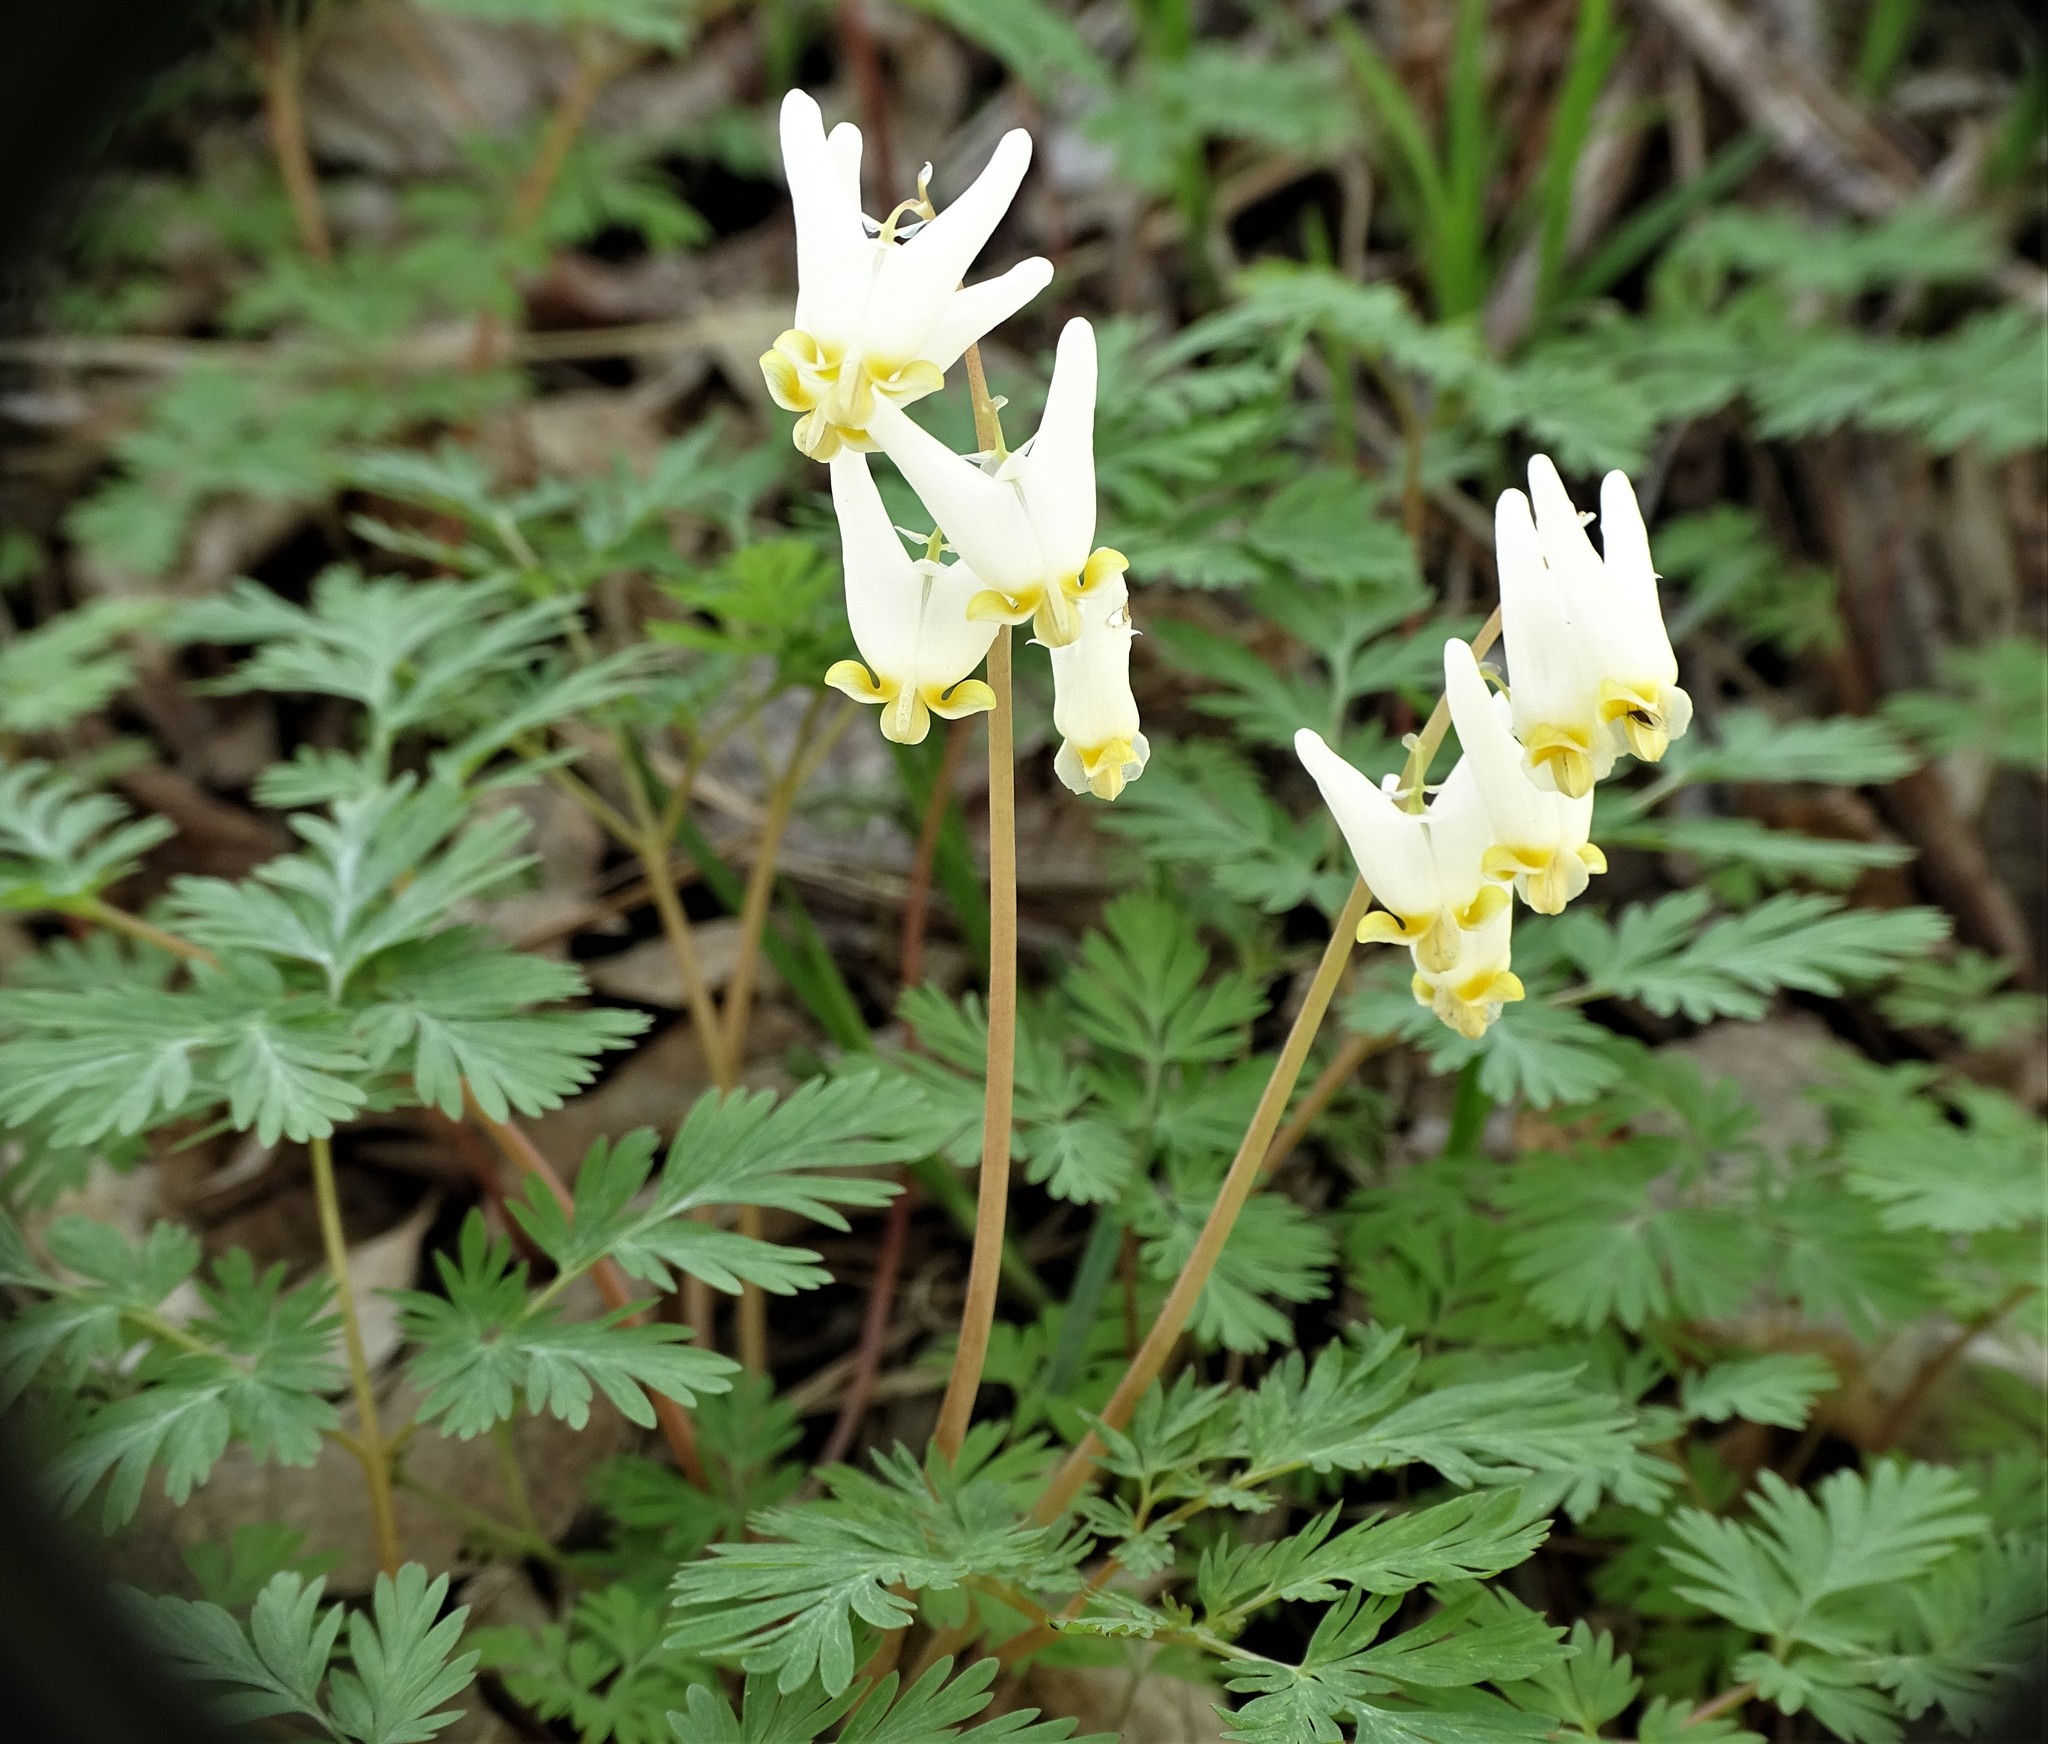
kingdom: Plantae
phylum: Tracheophyta
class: Magnoliopsida
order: Ranunculales
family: Papaveraceae
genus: Dicentra
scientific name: Dicentra cucullaria
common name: Dutchman's breeches
